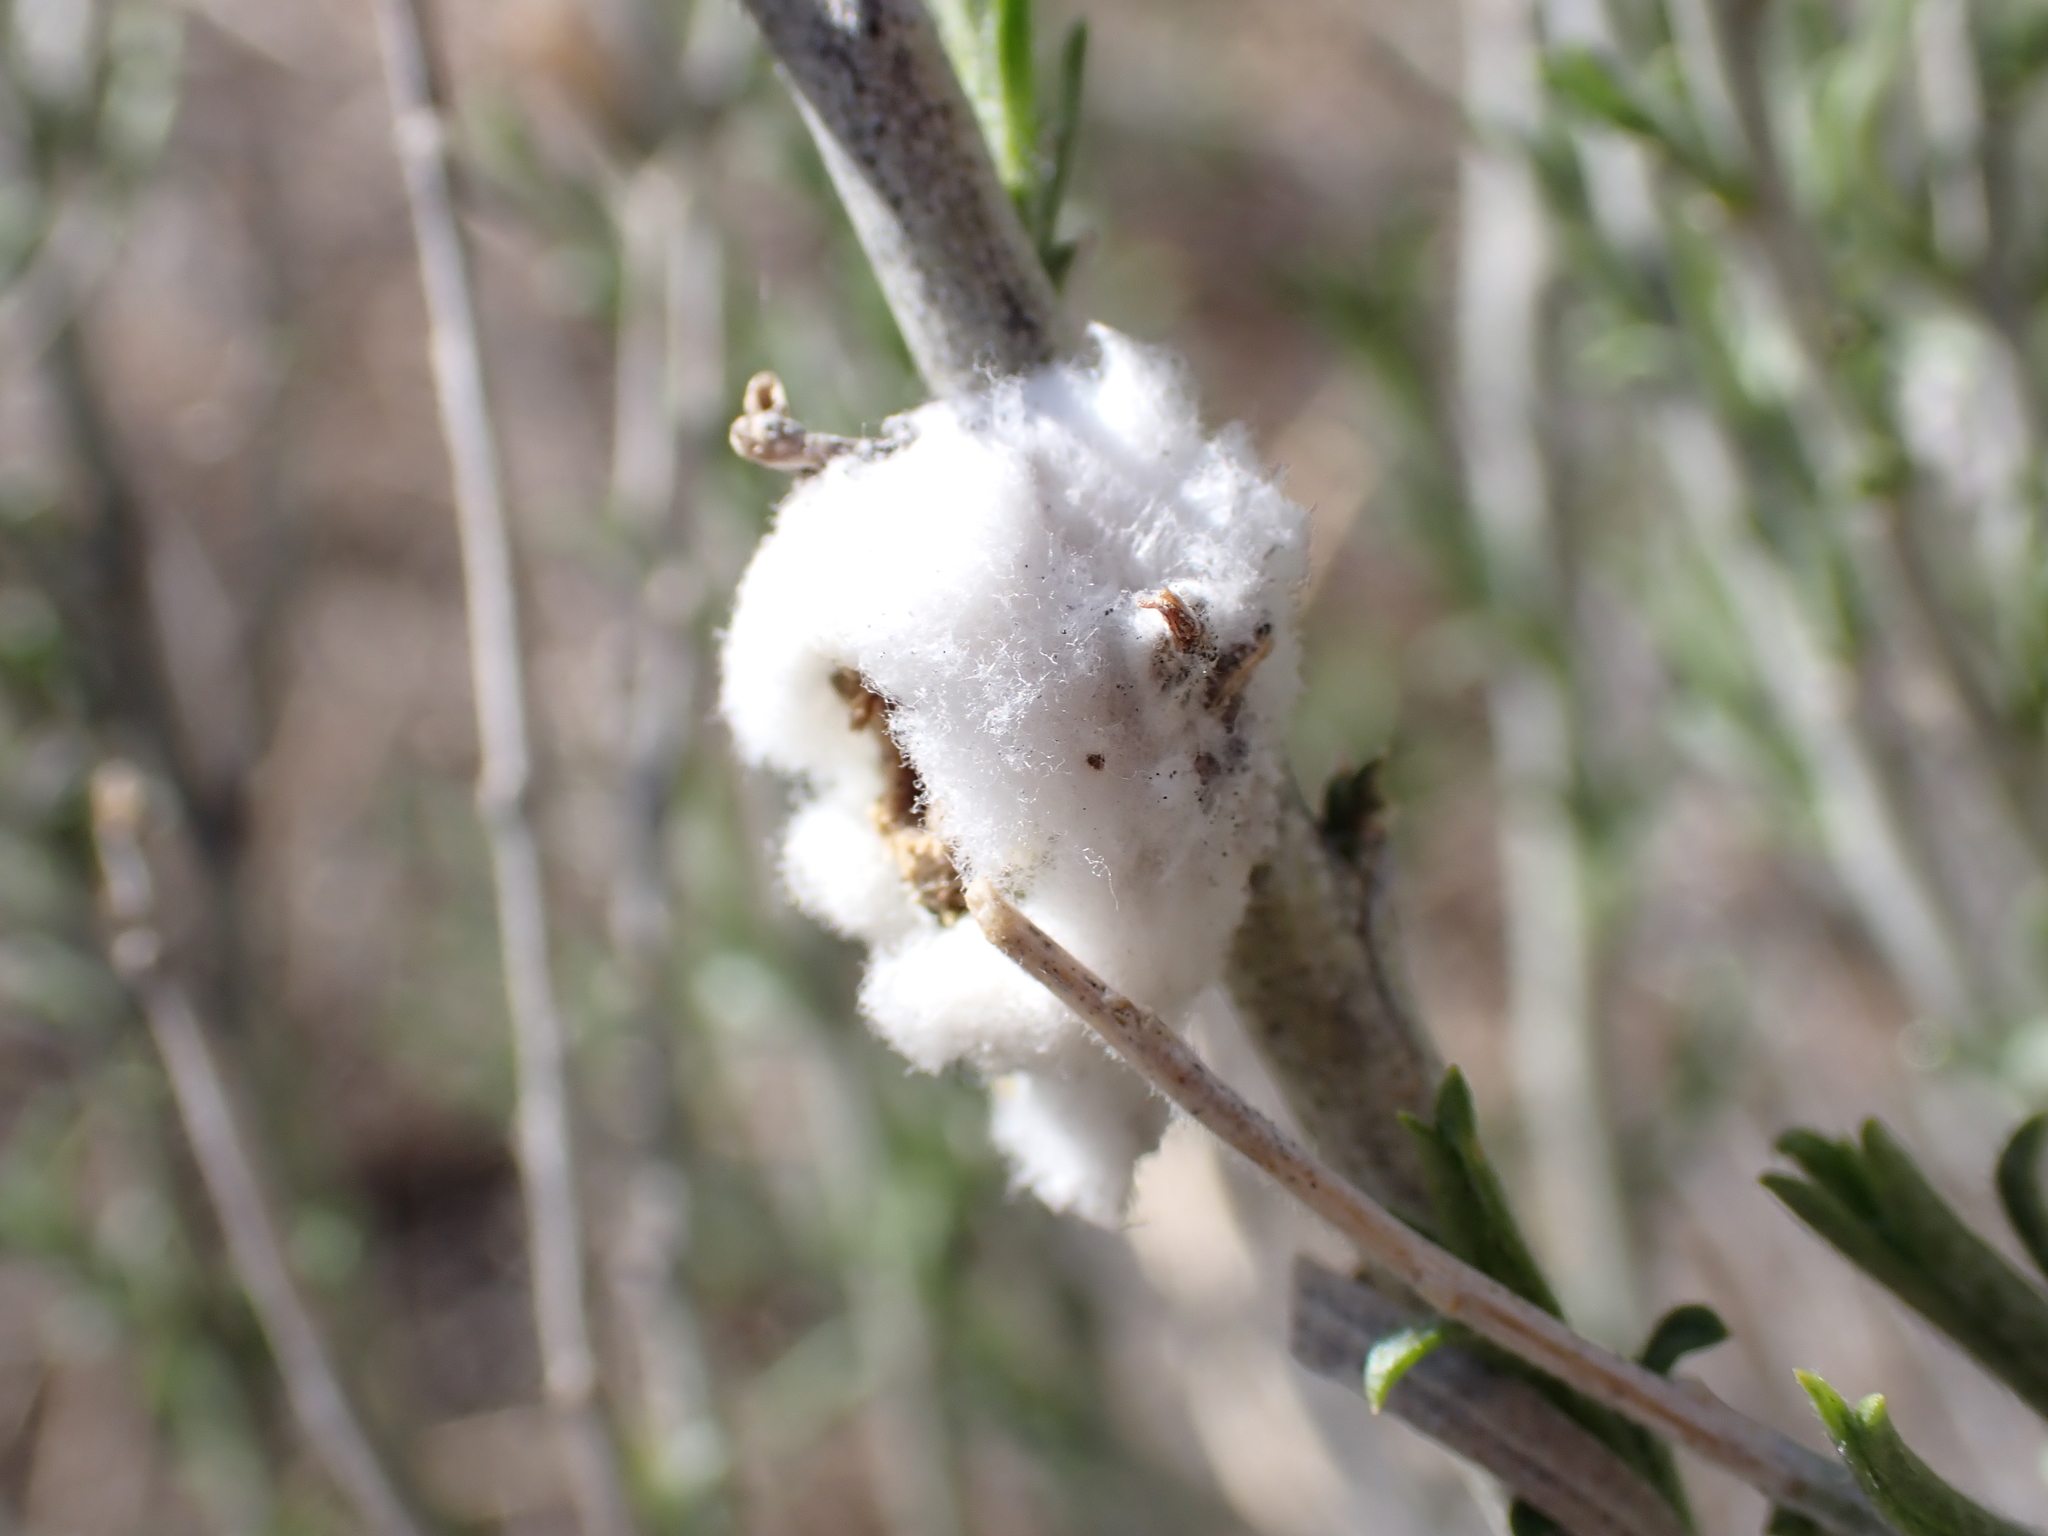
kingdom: Animalia
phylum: Arthropoda
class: Insecta
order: Diptera
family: Tephritidae
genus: Aciurina
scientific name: Aciurina bigeloviae
